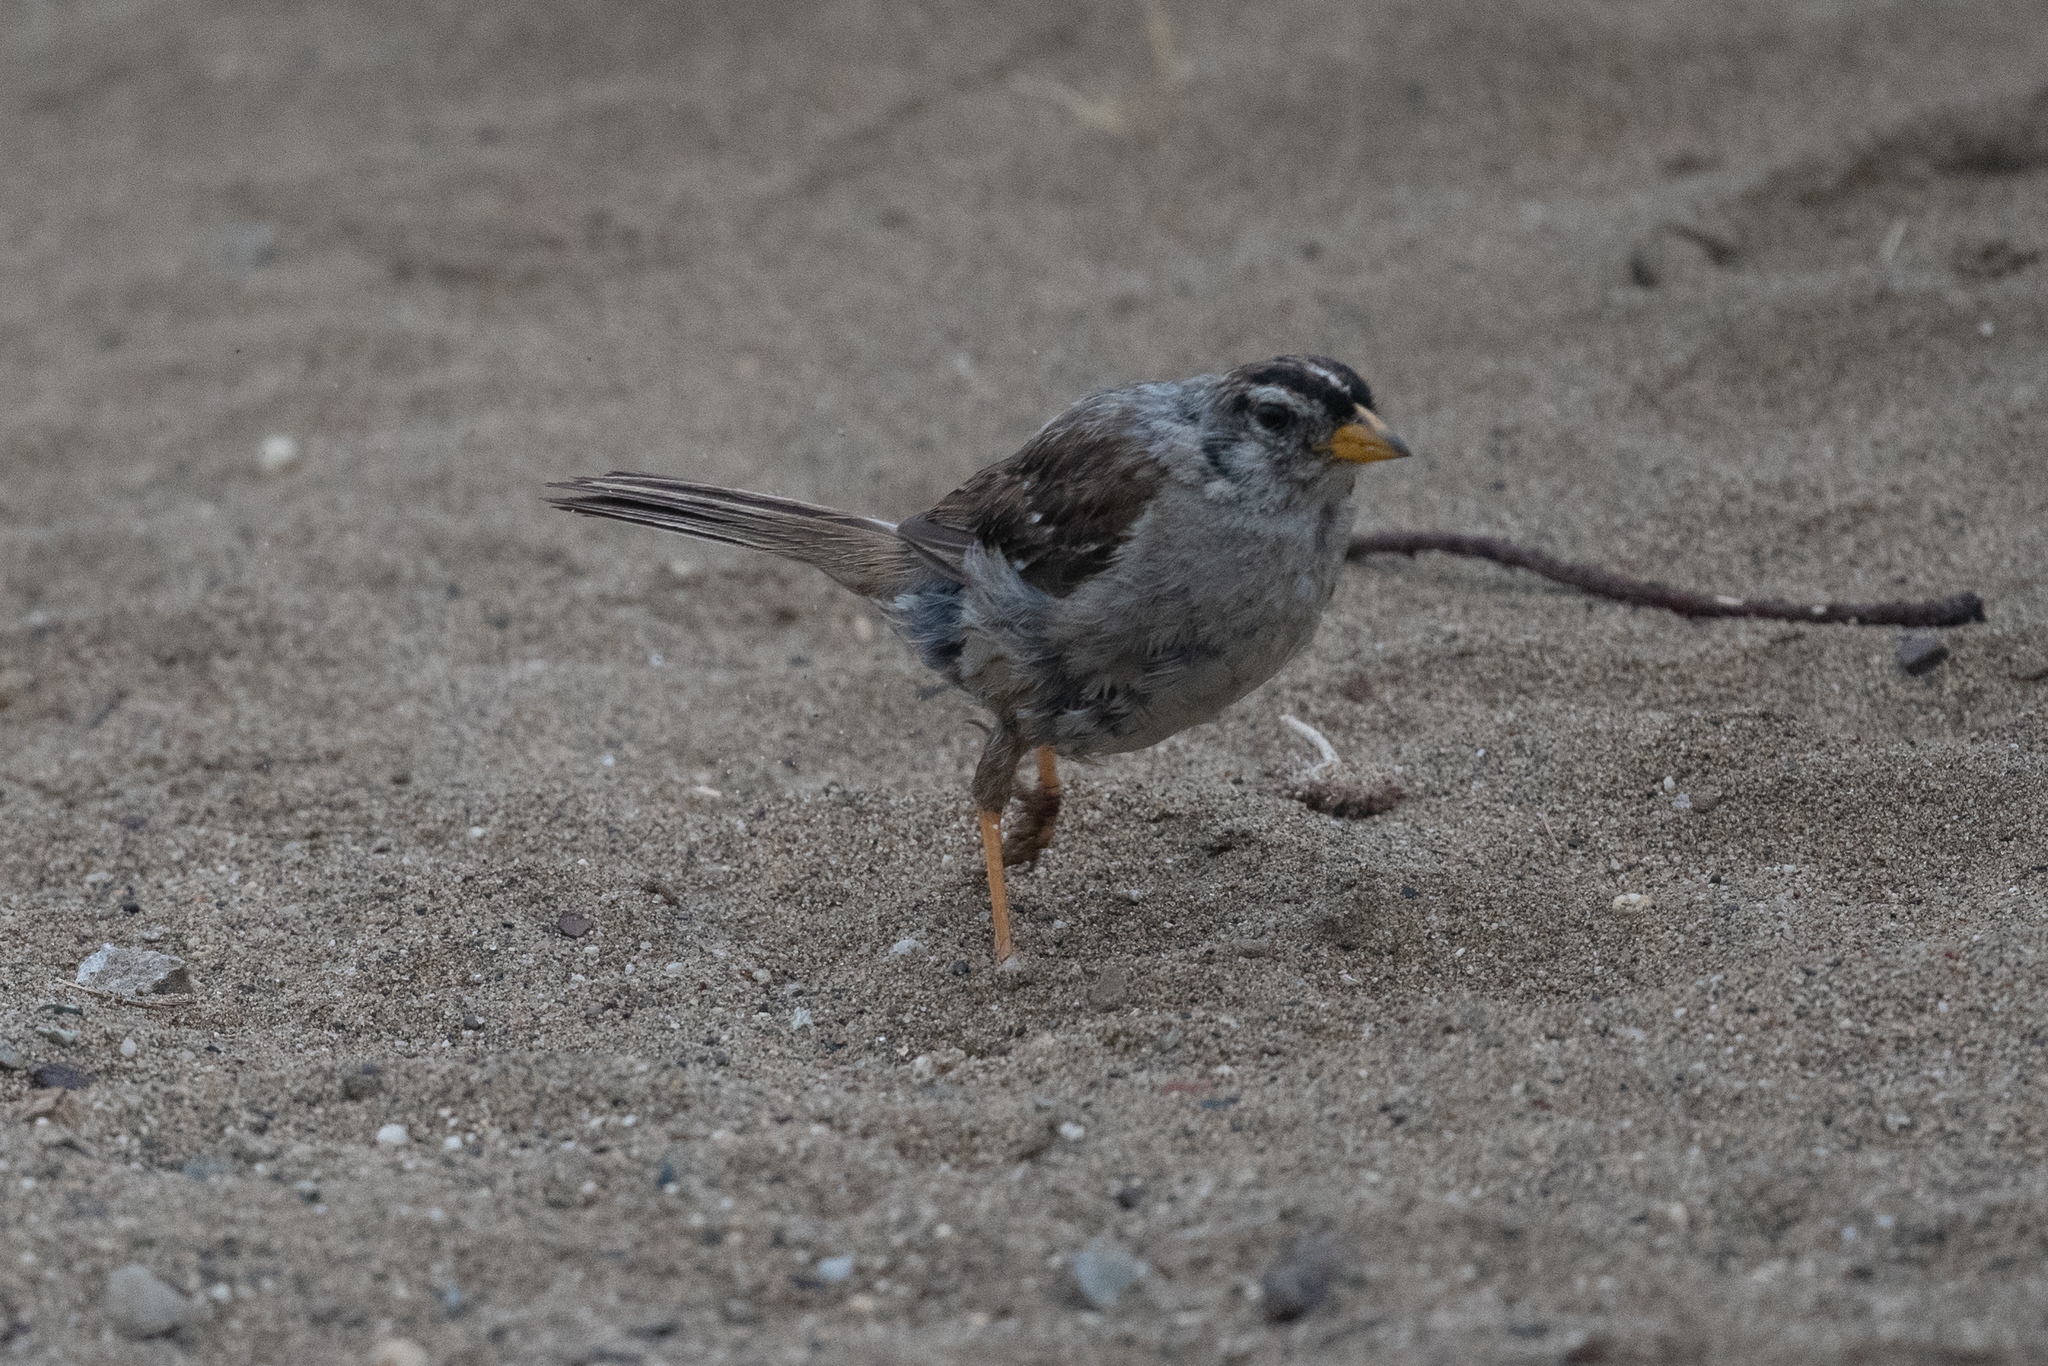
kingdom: Animalia
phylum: Chordata
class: Aves
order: Passeriformes
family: Passerellidae
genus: Zonotrichia
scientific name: Zonotrichia leucophrys
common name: White-crowned sparrow
